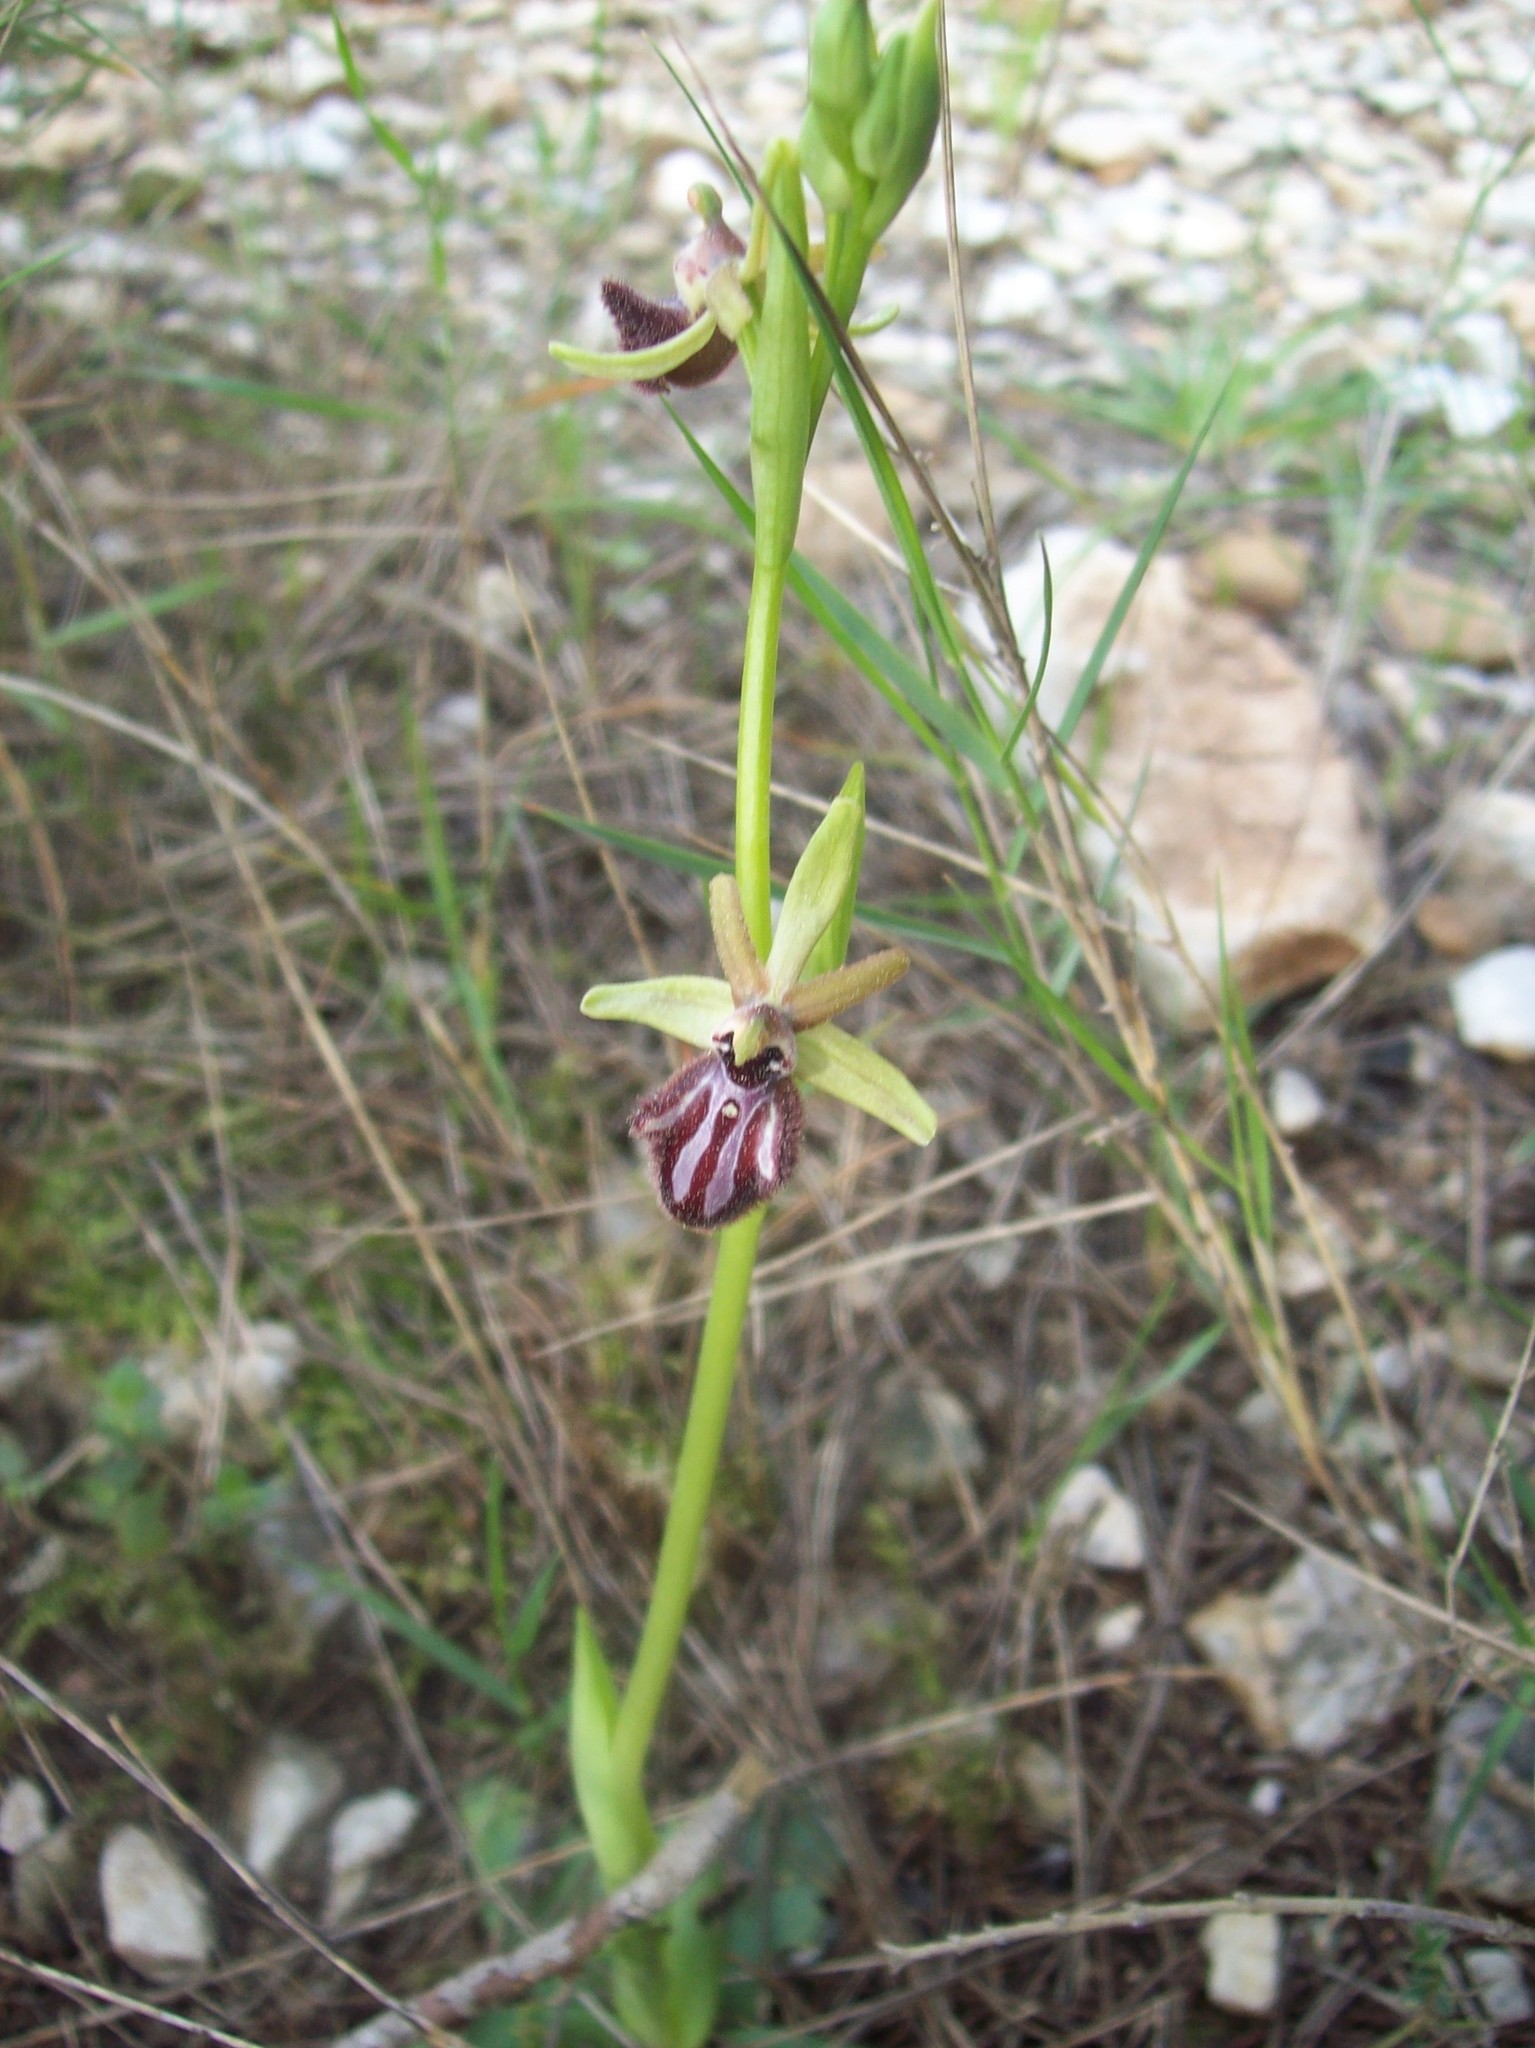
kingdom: Plantae
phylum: Tracheophyta
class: Liliopsida
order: Asparagales
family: Orchidaceae
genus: Ophrys
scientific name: Ophrys sphegodes
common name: Early spider-orchid
